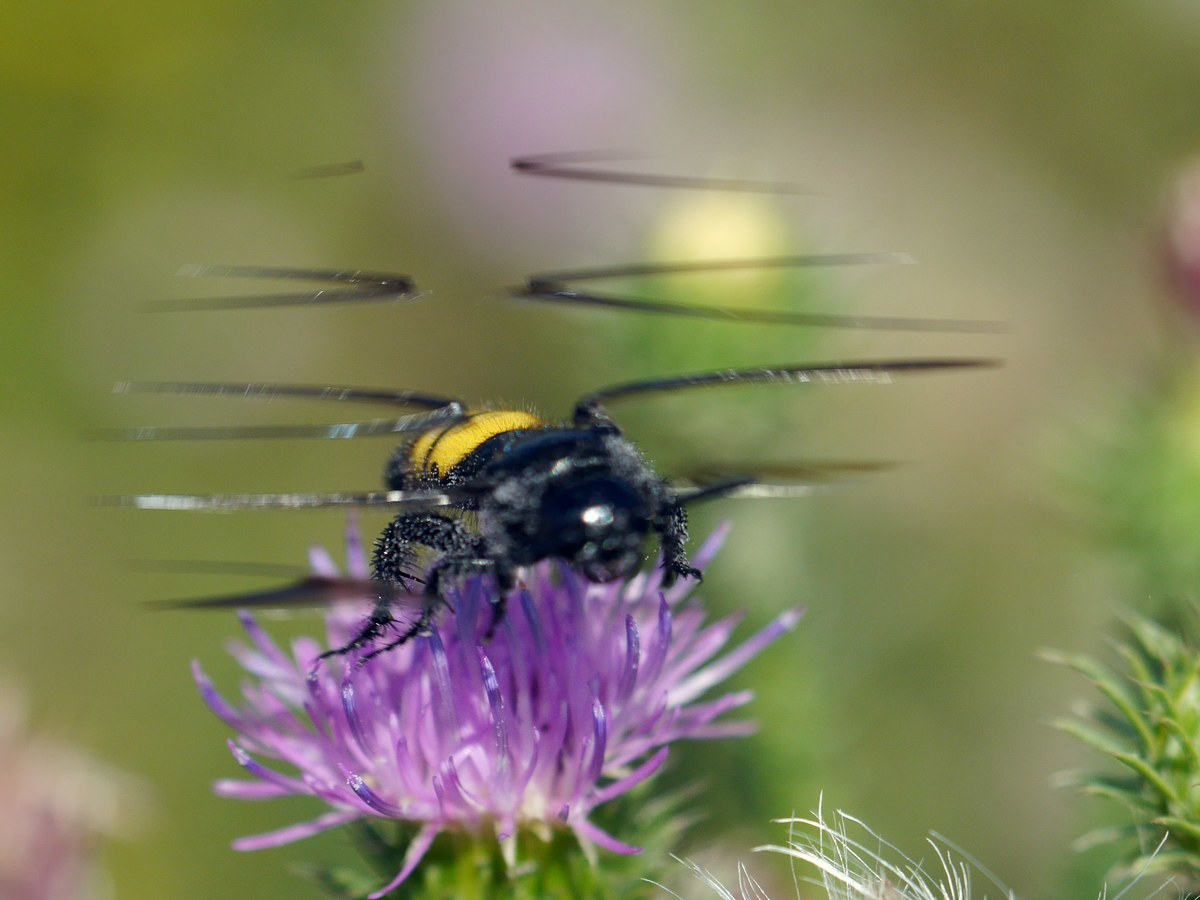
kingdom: Animalia
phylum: Arthropoda
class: Insecta
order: Hymenoptera
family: Scoliidae
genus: Scolia
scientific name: Scolia hirta
